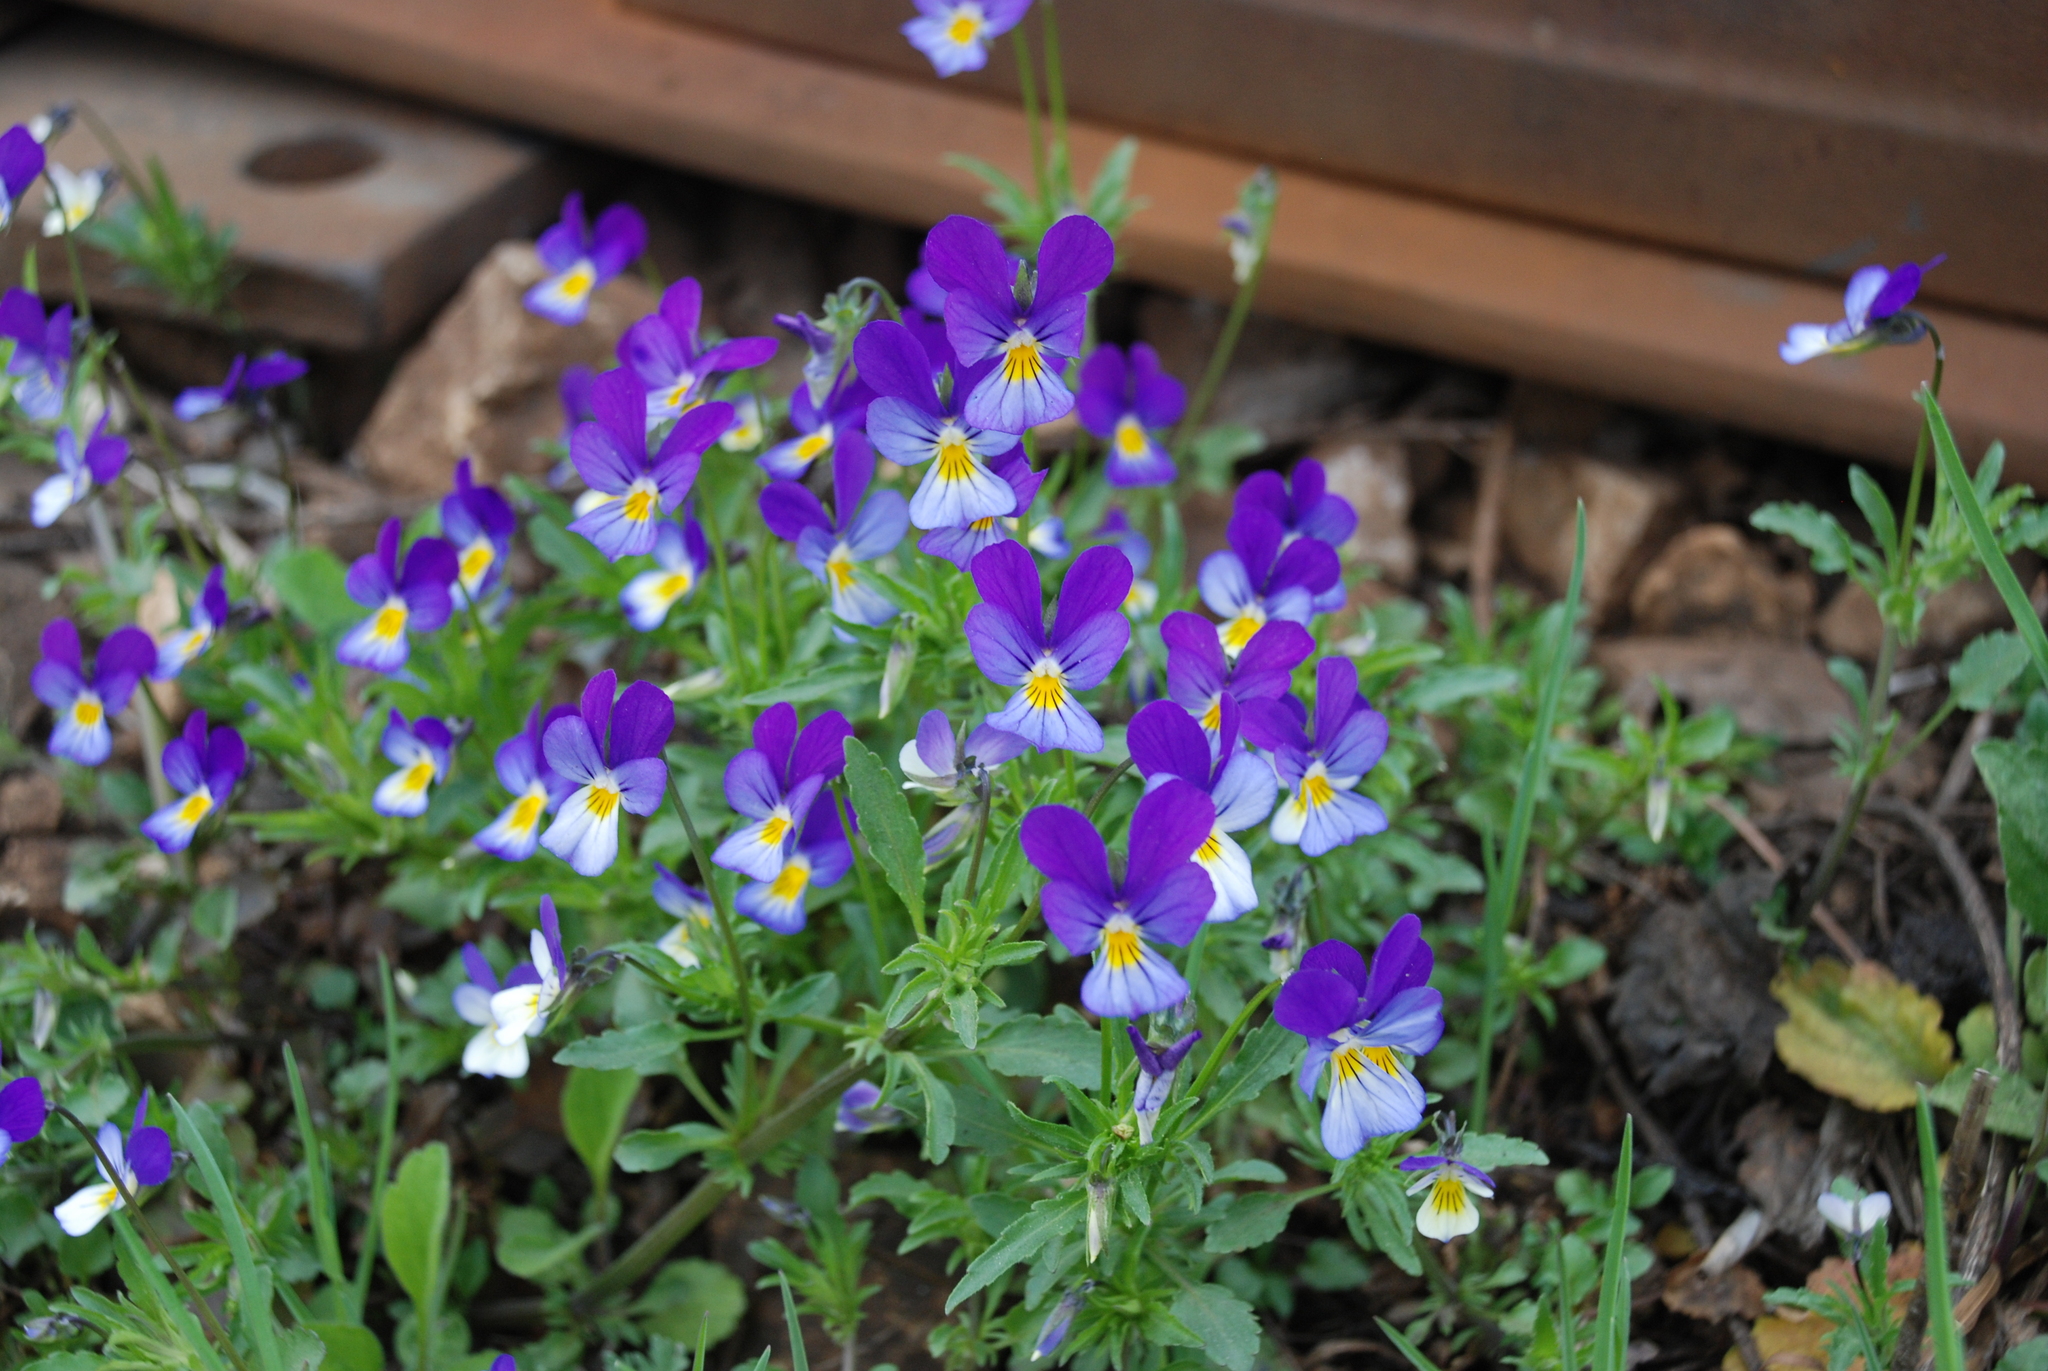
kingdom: Plantae
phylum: Tracheophyta
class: Magnoliopsida
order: Malpighiales
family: Violaceae
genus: Viola
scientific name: Viola tricolor
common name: Pansy
